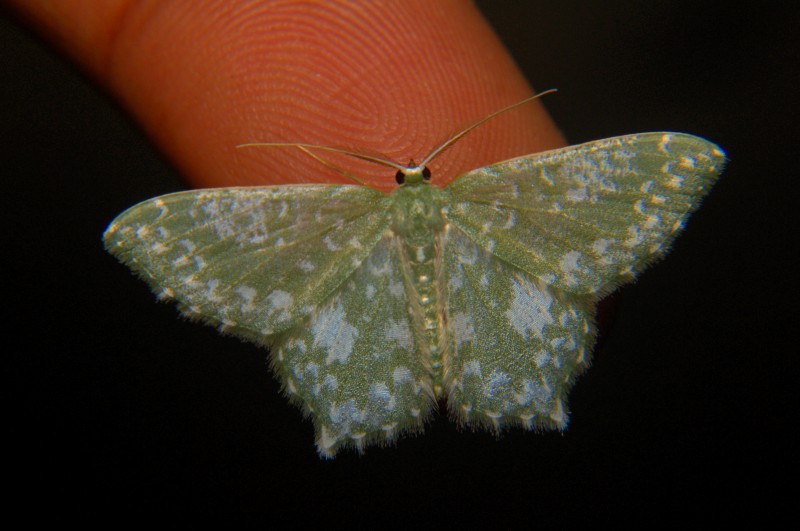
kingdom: Animalia
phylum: Arthropoda
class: Insecta
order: Lepidoptera
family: Geometridae
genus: Berta
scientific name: Berta chrysolineata
